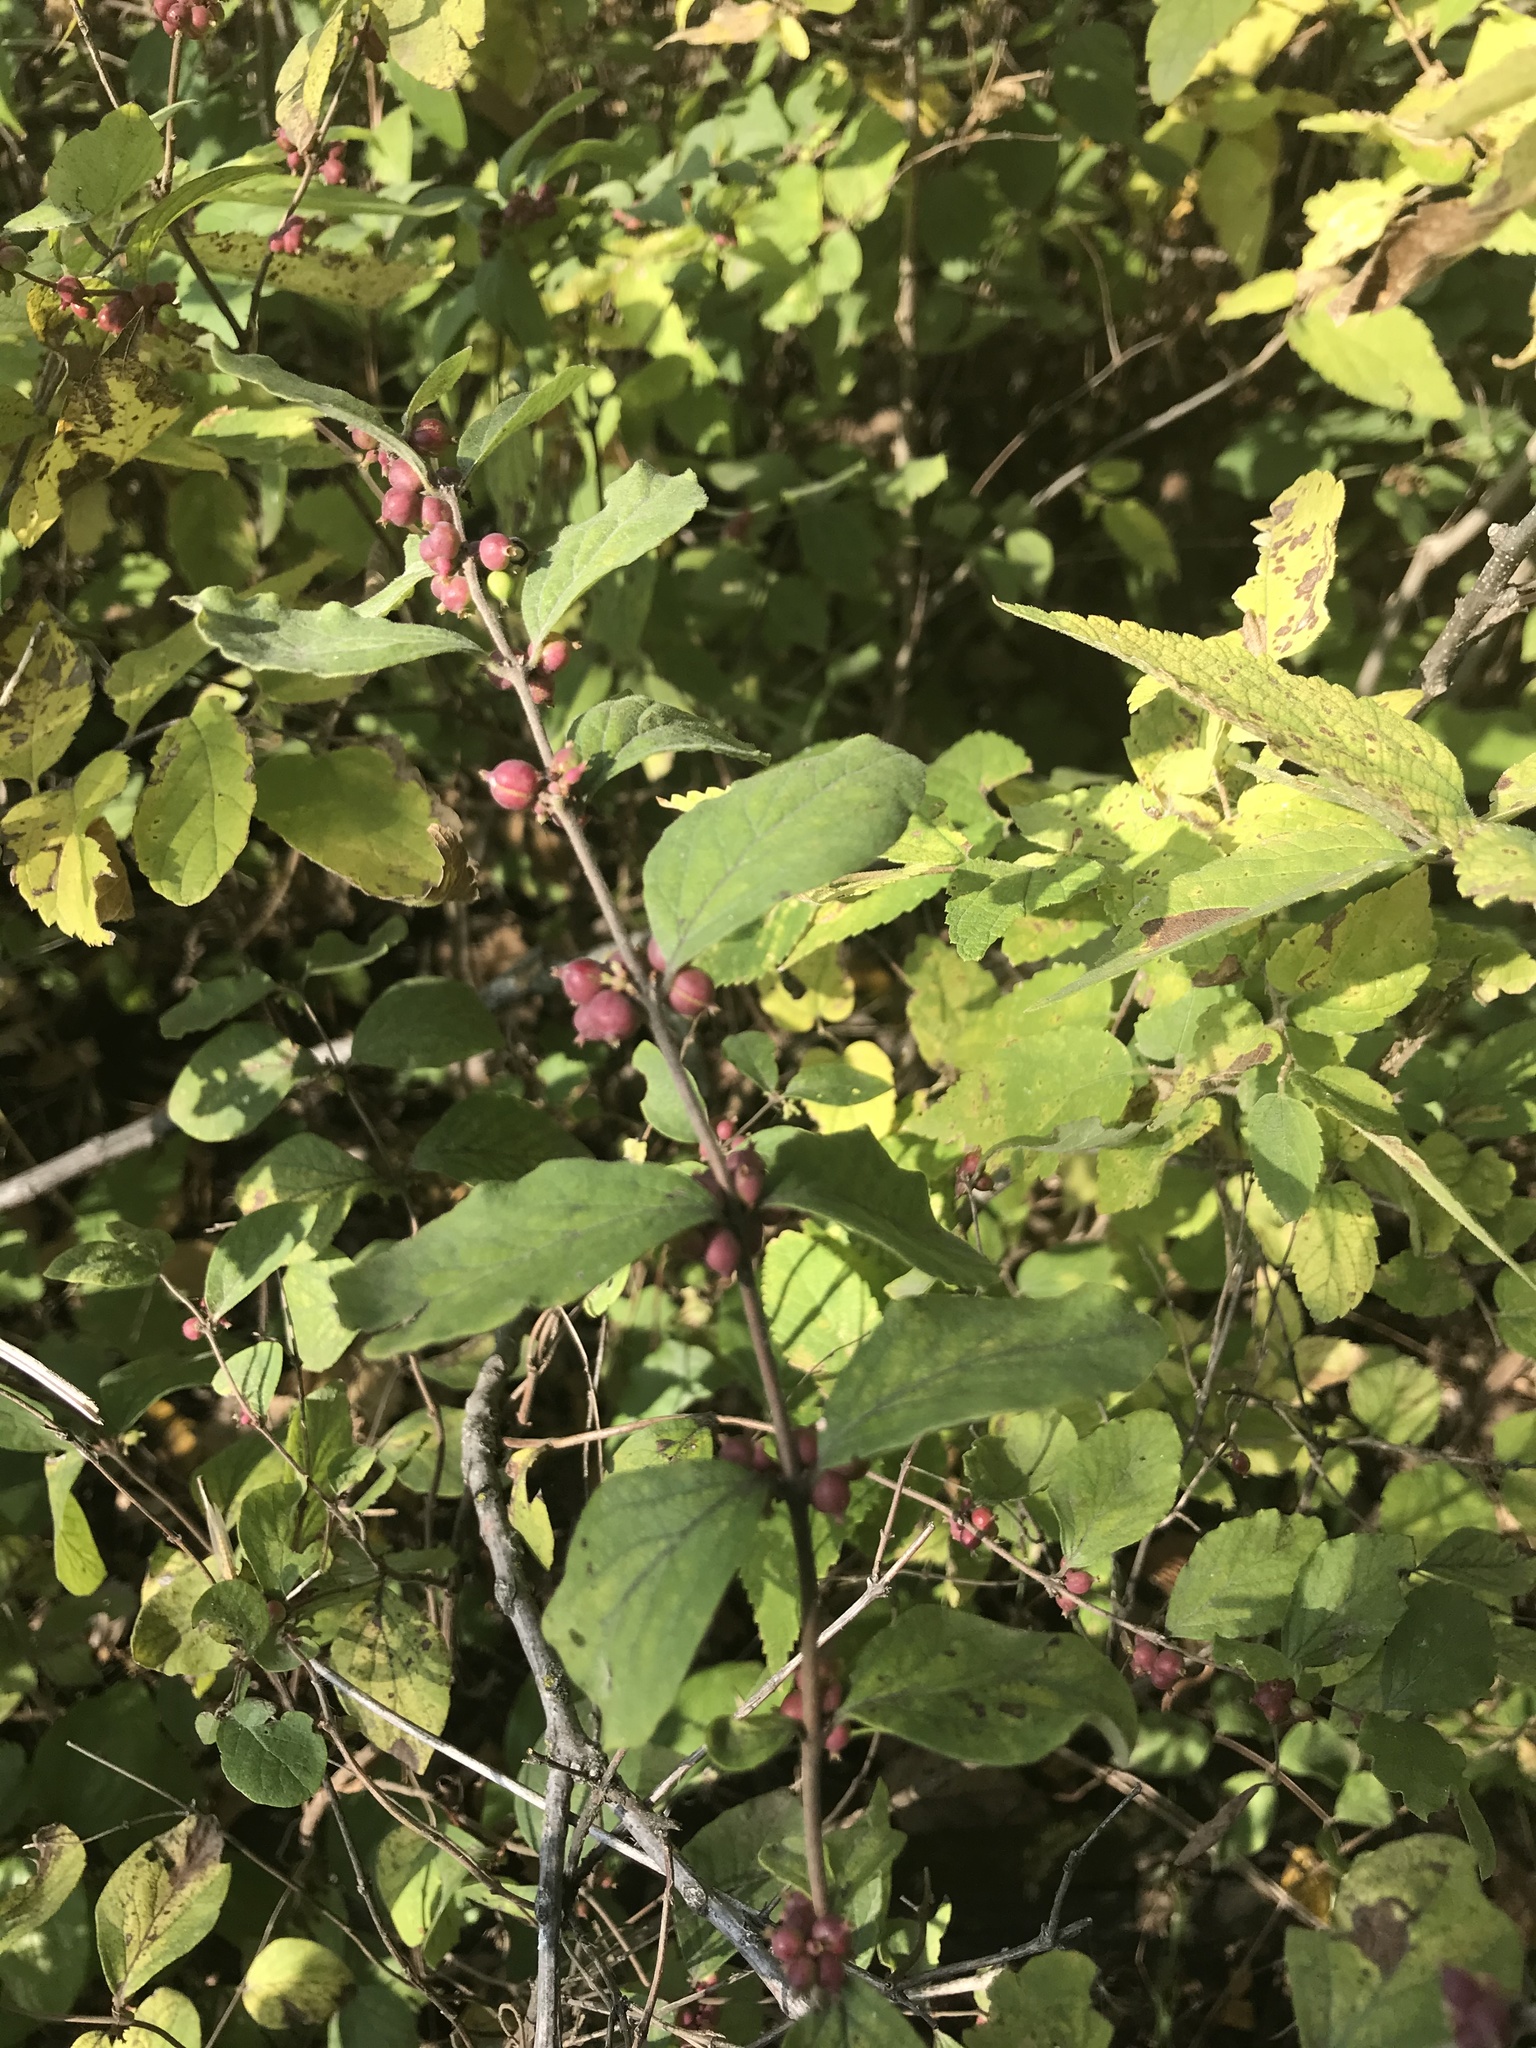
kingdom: Plantae
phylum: Tracheophyta
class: Magnoliopsida
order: Dipsacales
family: Caprifoliaceae
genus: Symphoricarpos
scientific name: Symphoricarpos orbiculatus
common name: Coralberry
